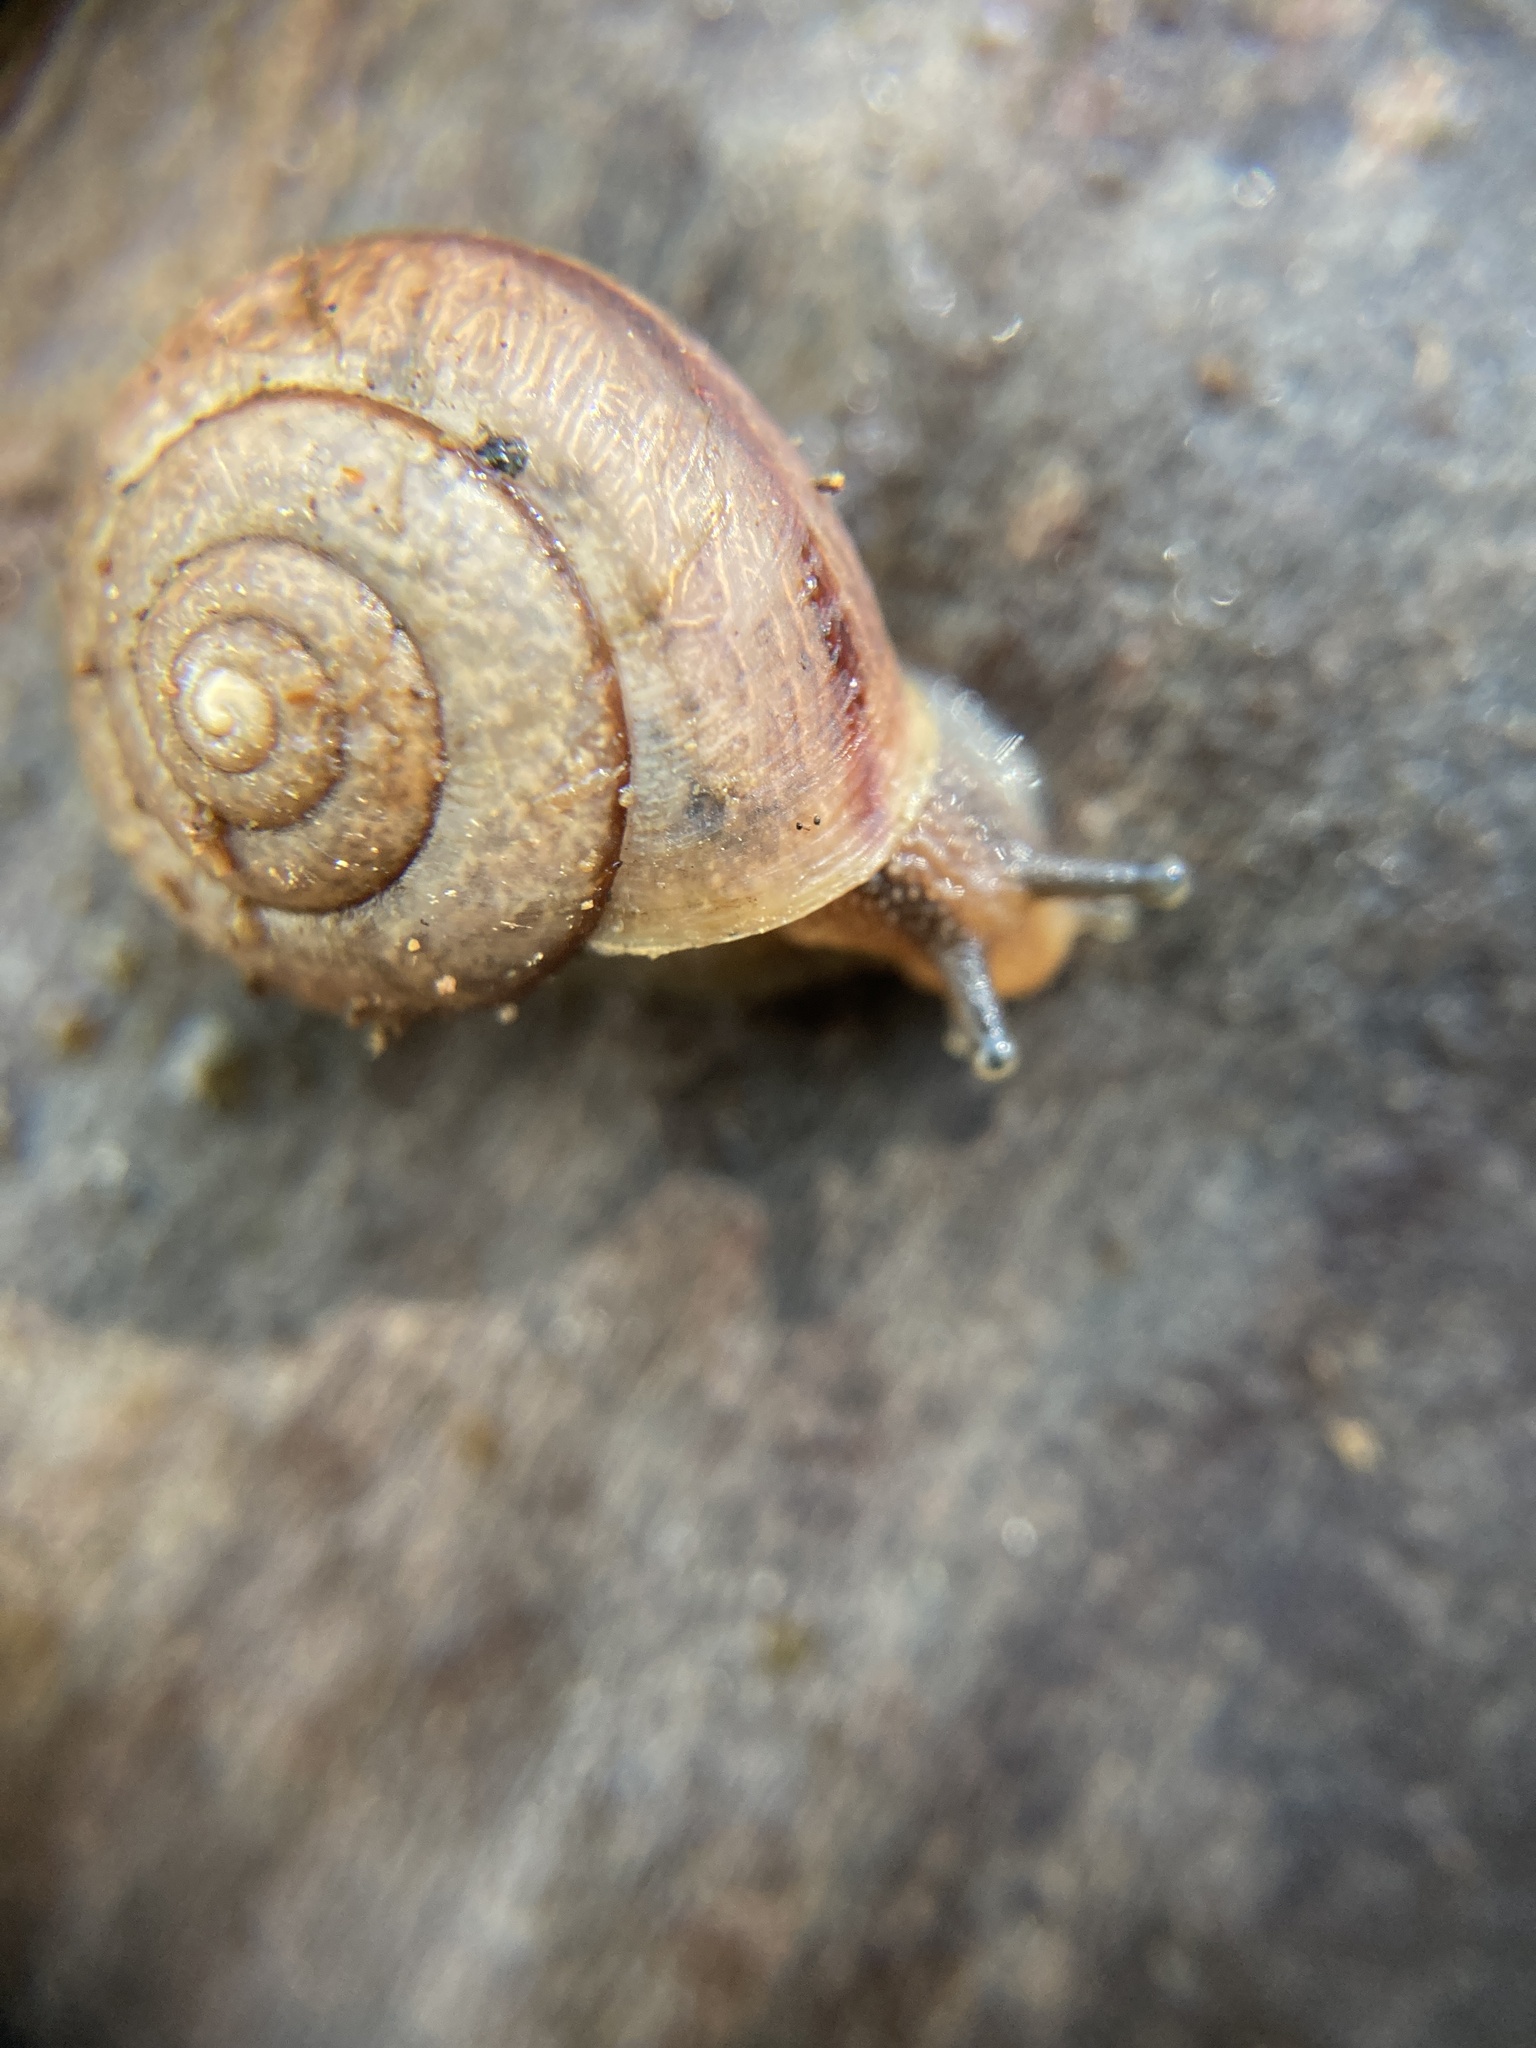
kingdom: Animalia
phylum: Mollusca
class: Gastropoda
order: Stylommatophora
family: Camaenidae
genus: Bradybaena
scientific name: Bradybaena similaris
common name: Asian trampsnail
